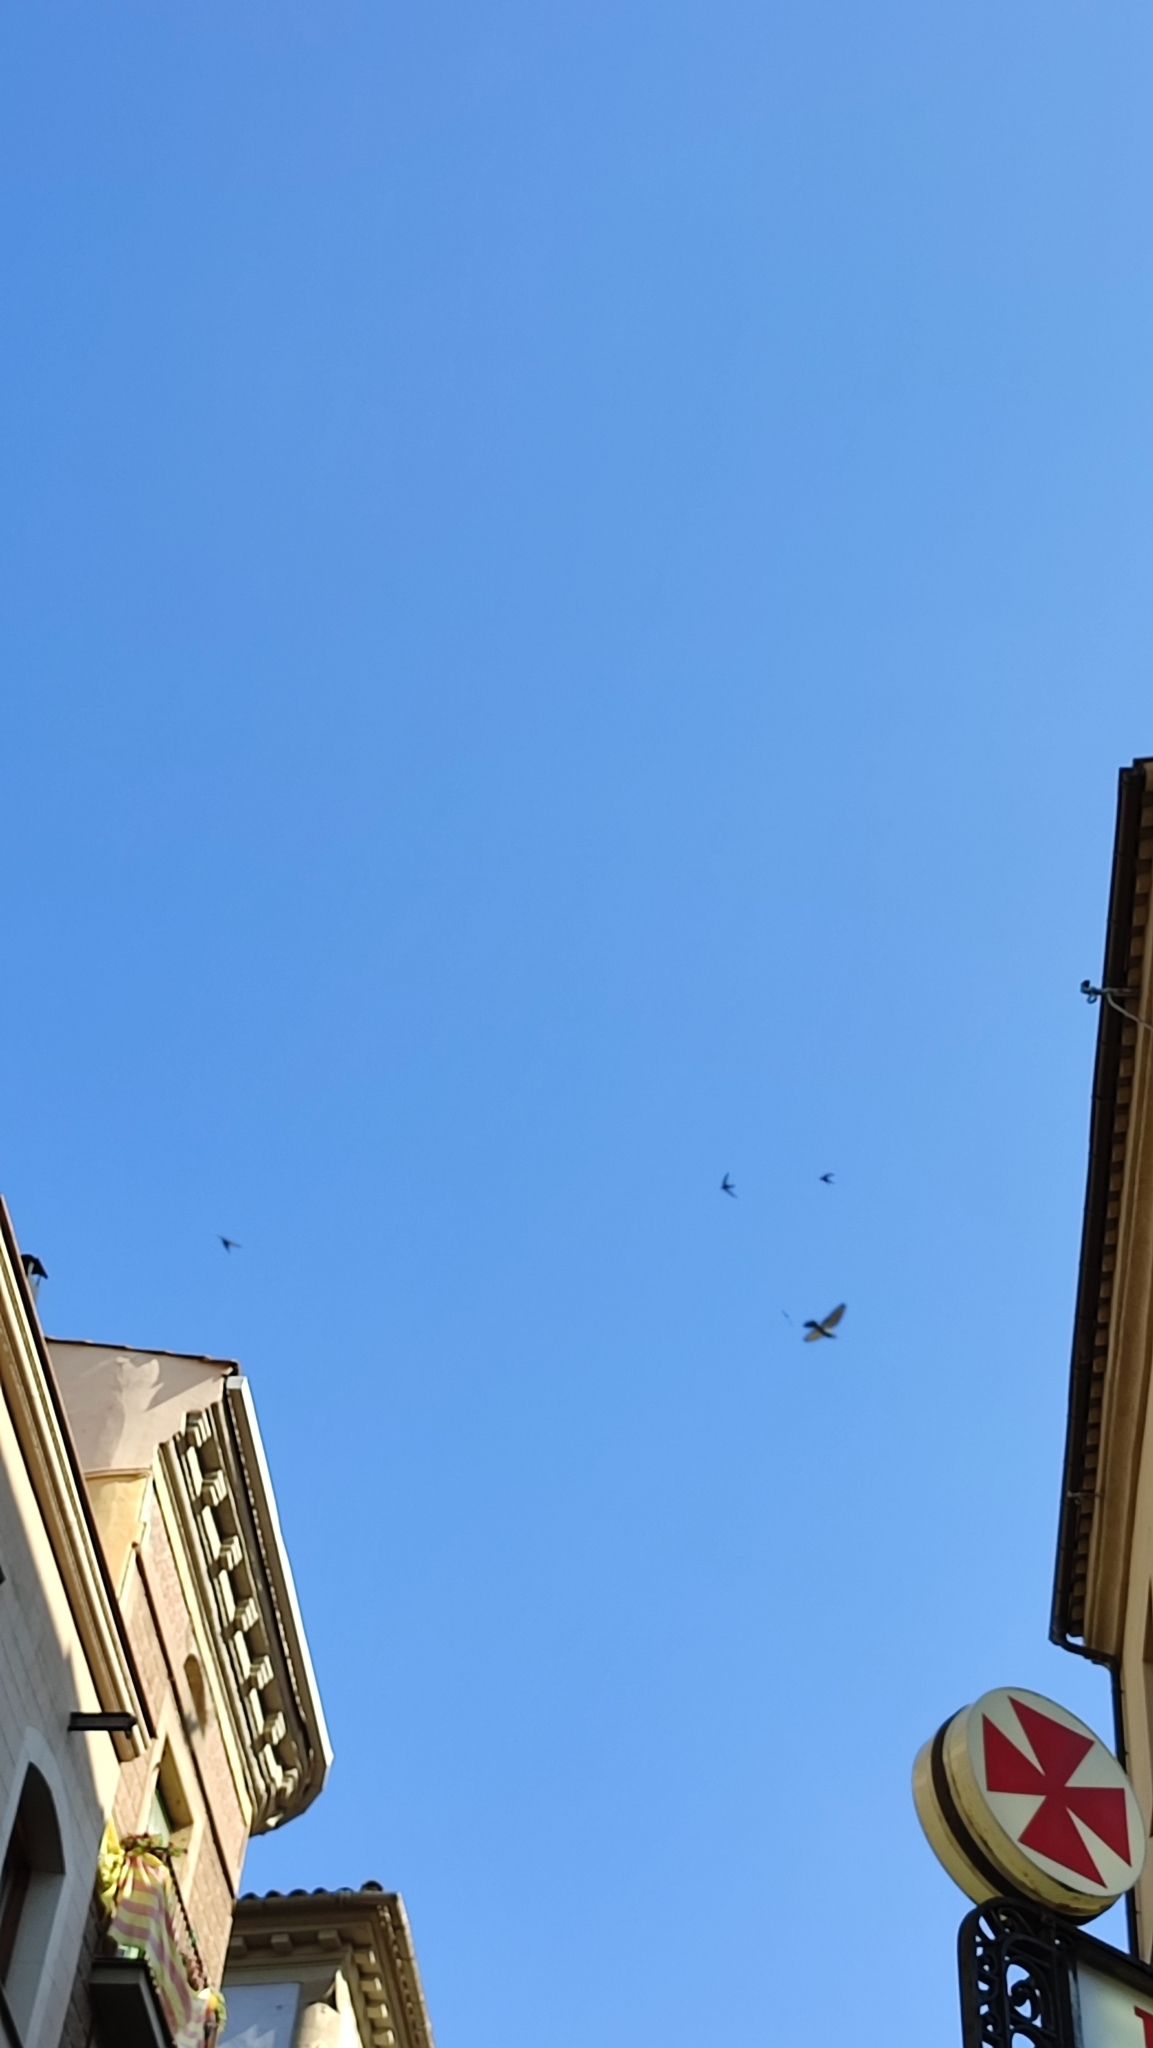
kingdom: Animalia
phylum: Chordata
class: Aves
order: Apodiformes
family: Apodidae
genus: Apus
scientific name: Apus apus
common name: Common swift
